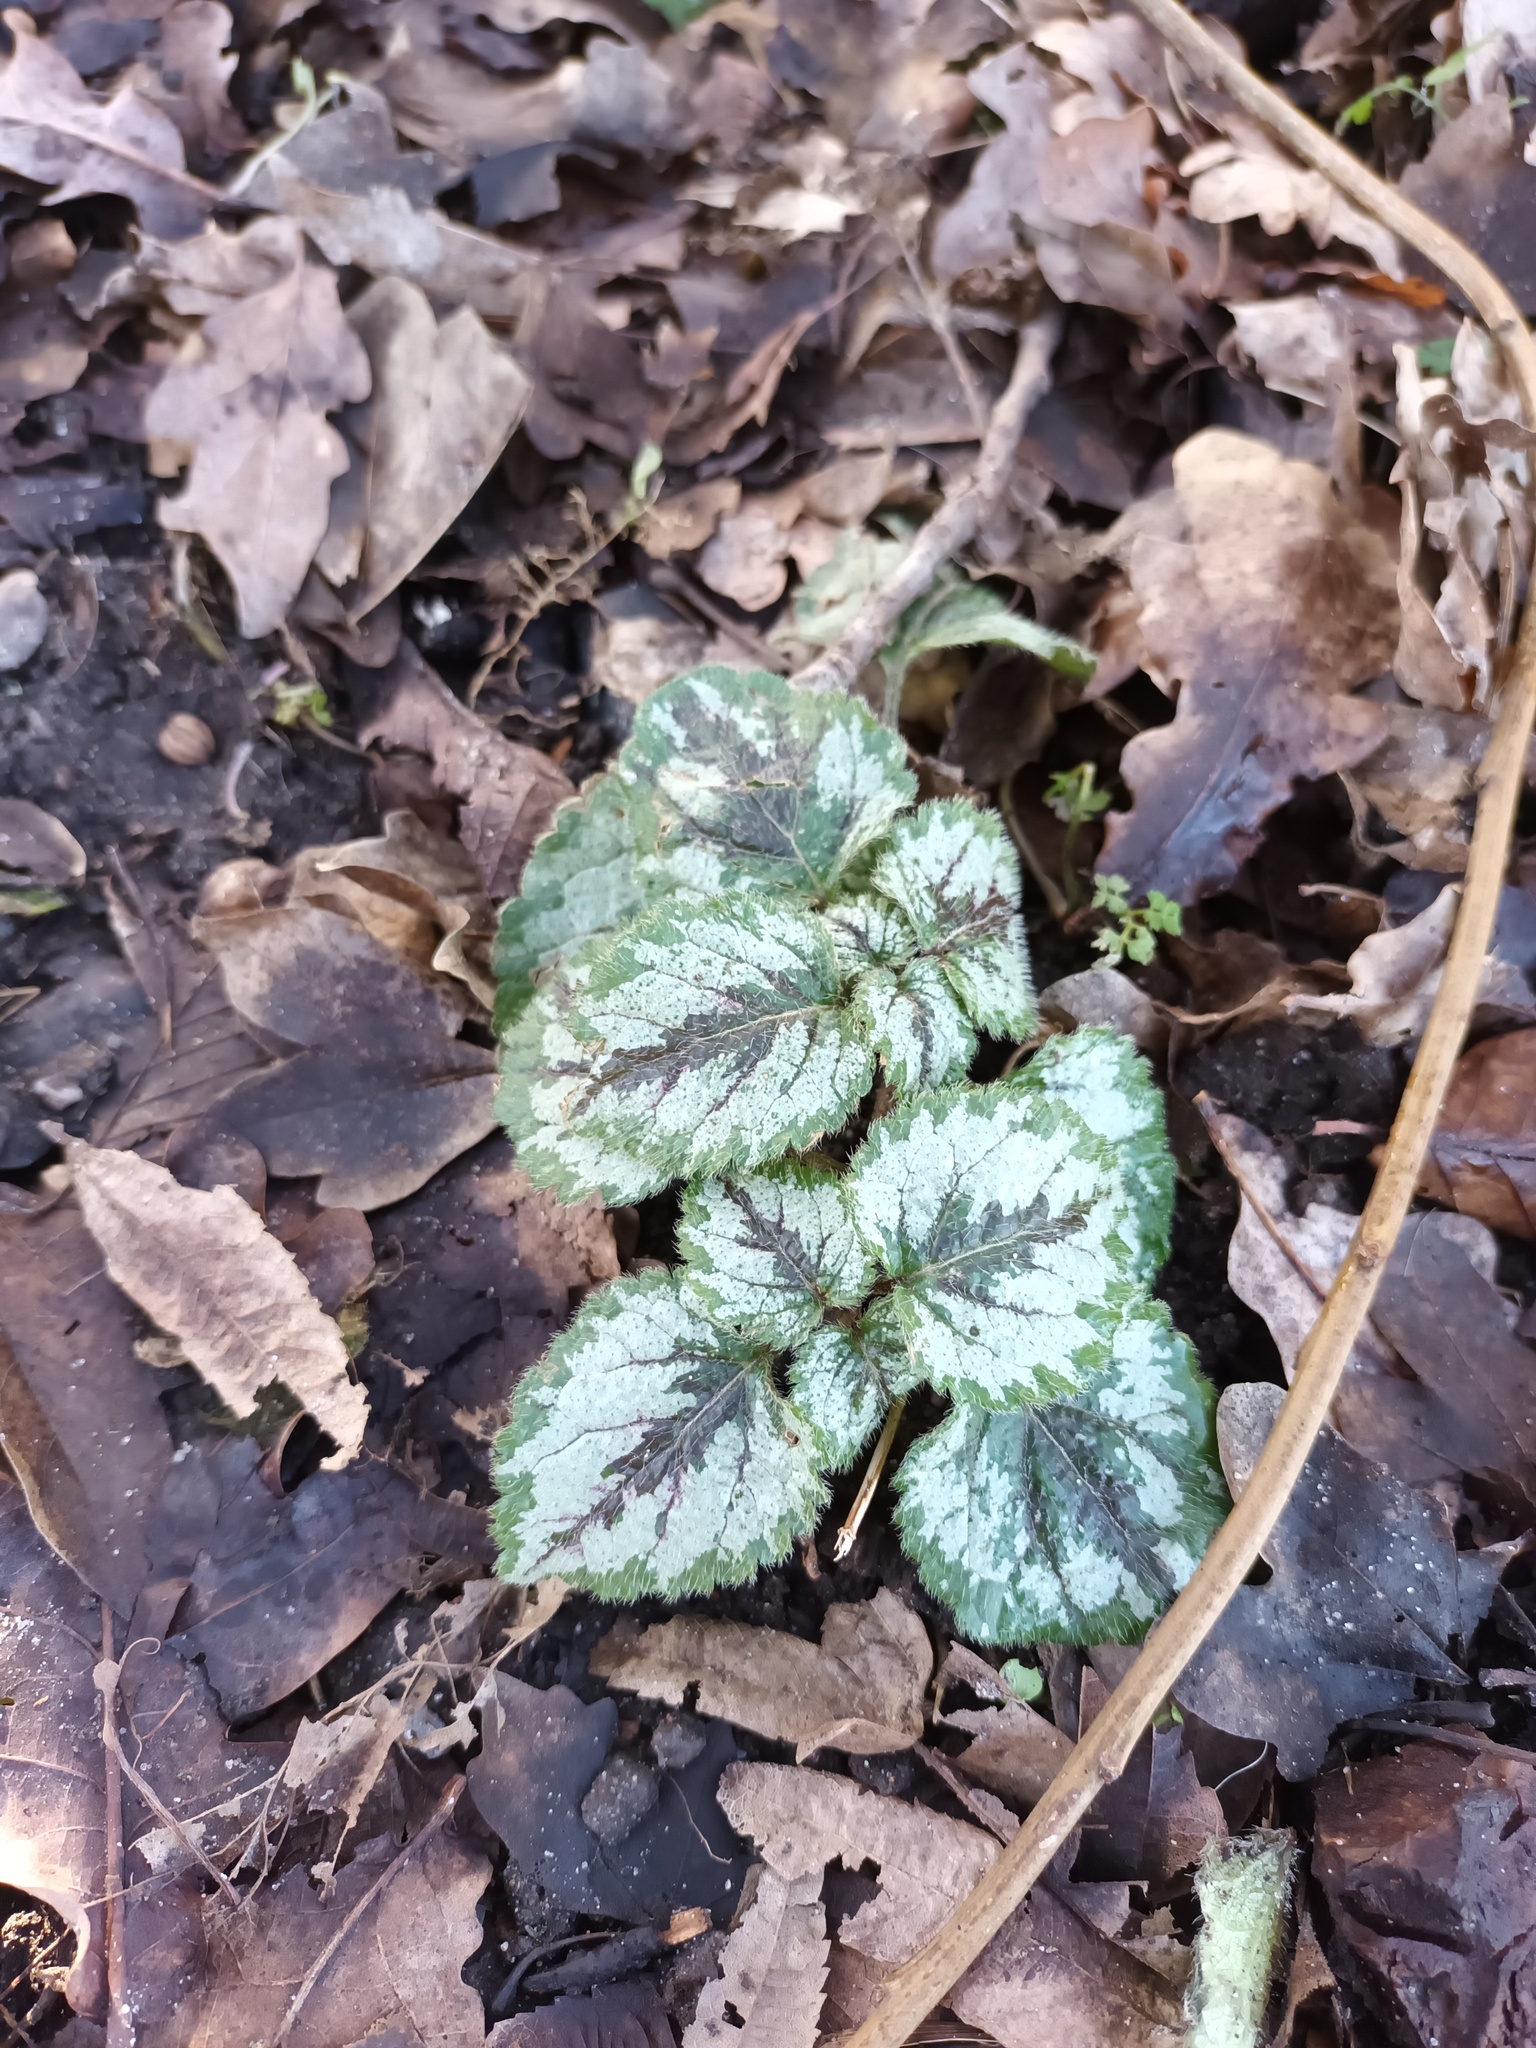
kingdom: Plantae
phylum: Tracheophyta
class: Magnoliopsida
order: Lamiales
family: Lamiaceae
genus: Lamium
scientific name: Lamium galeobdolon
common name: Yellow archangel
